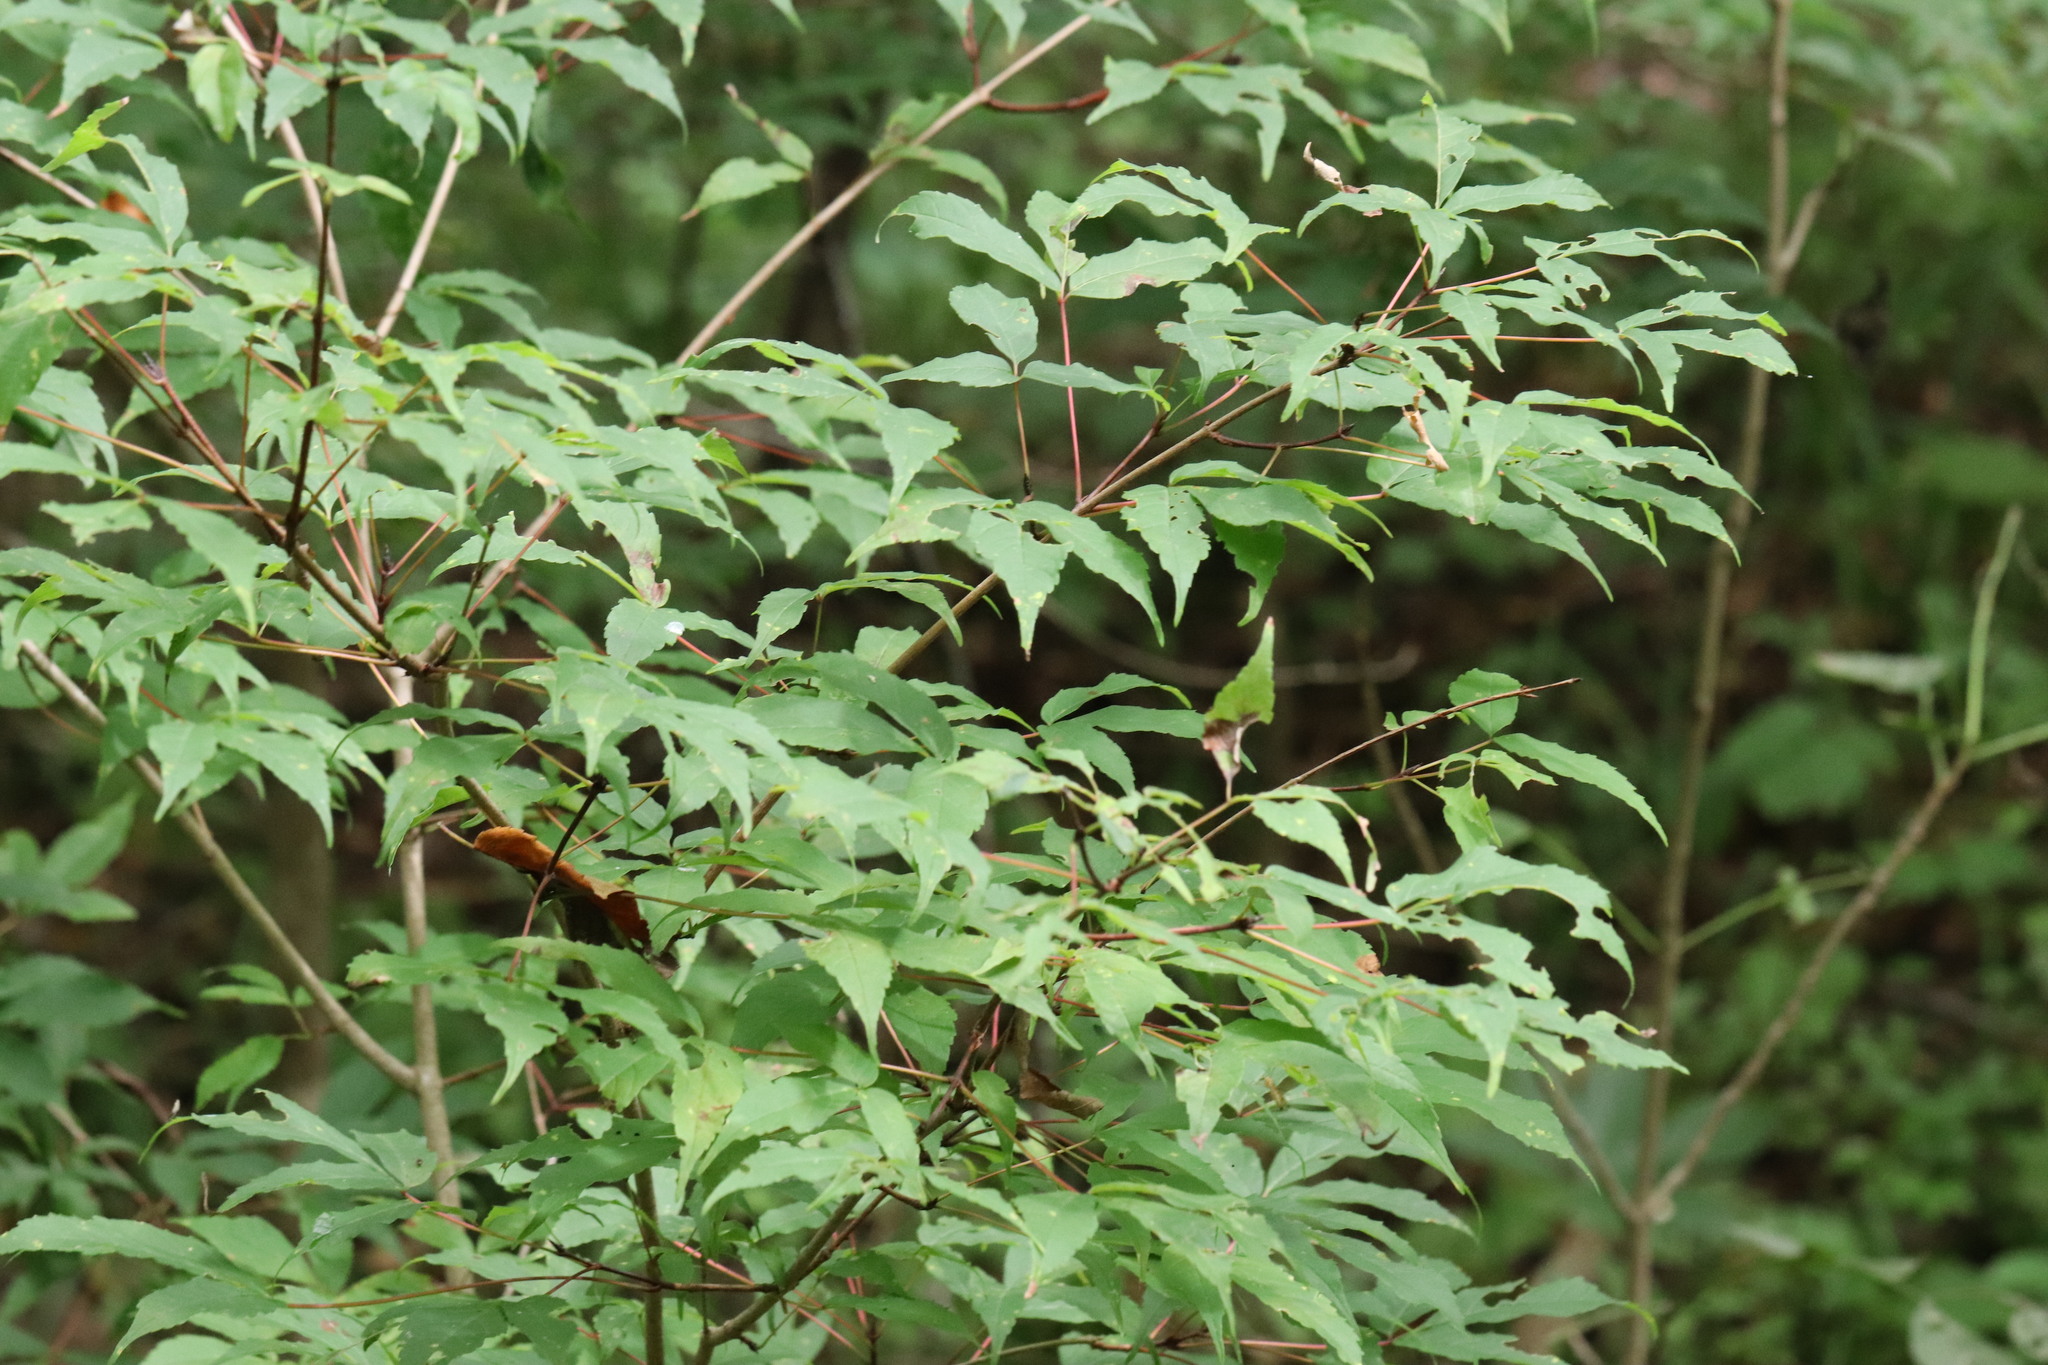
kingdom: Plantae
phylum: Tracheophyta
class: Magnoliopsida
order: Sapindales
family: Sapindaceae
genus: Acer
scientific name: Acer mandshuricum
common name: Manchurian maple
